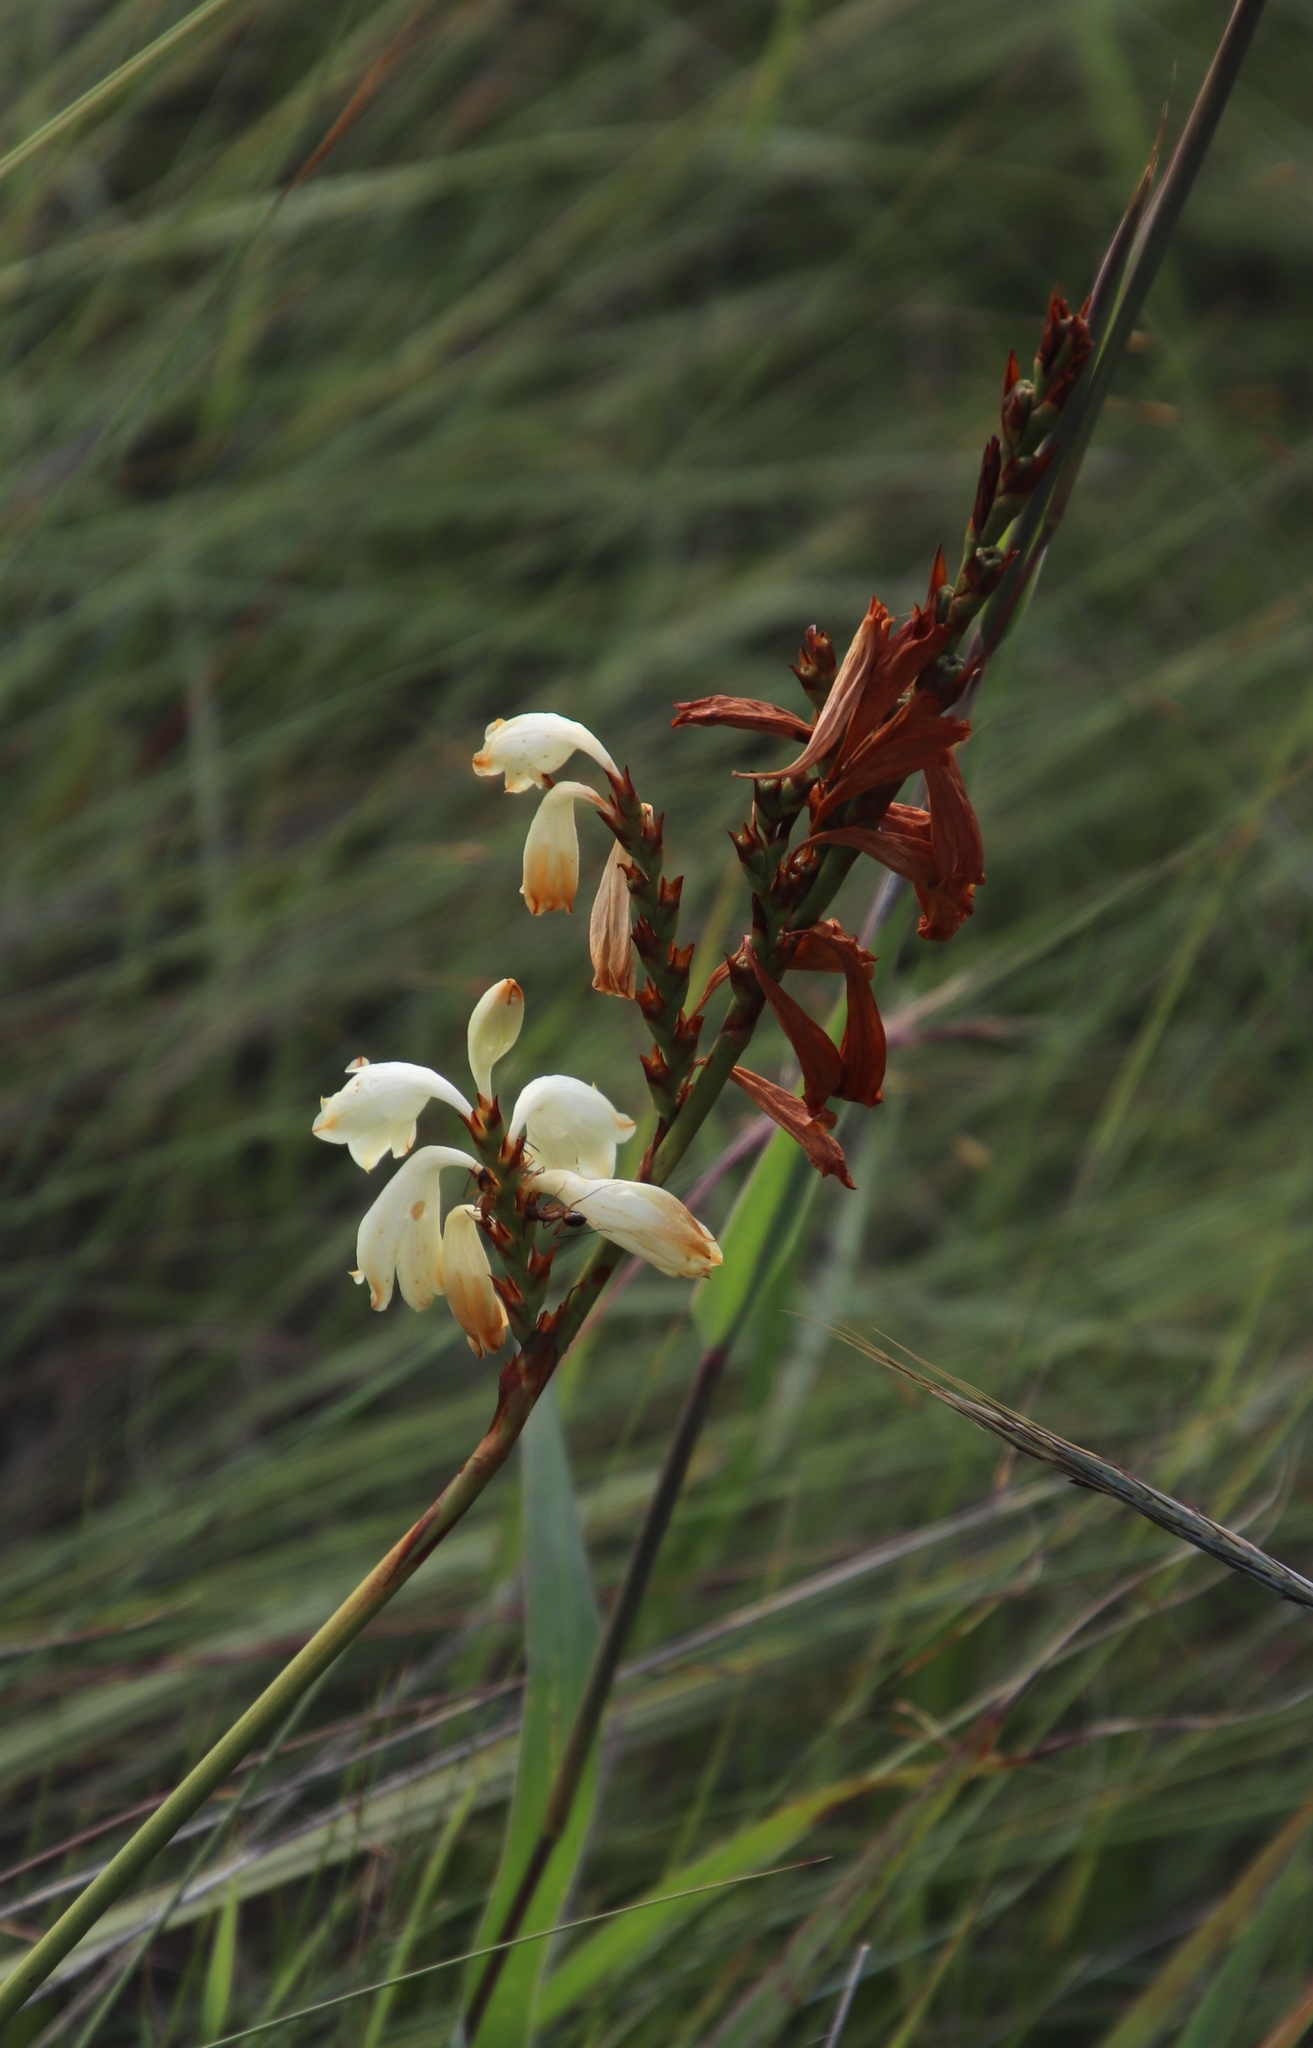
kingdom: Plantae
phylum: Tracheophyta
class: Liliopsida
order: Asparagales
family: Iridaceae
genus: Watsonia
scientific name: Watsonia watsonioides
